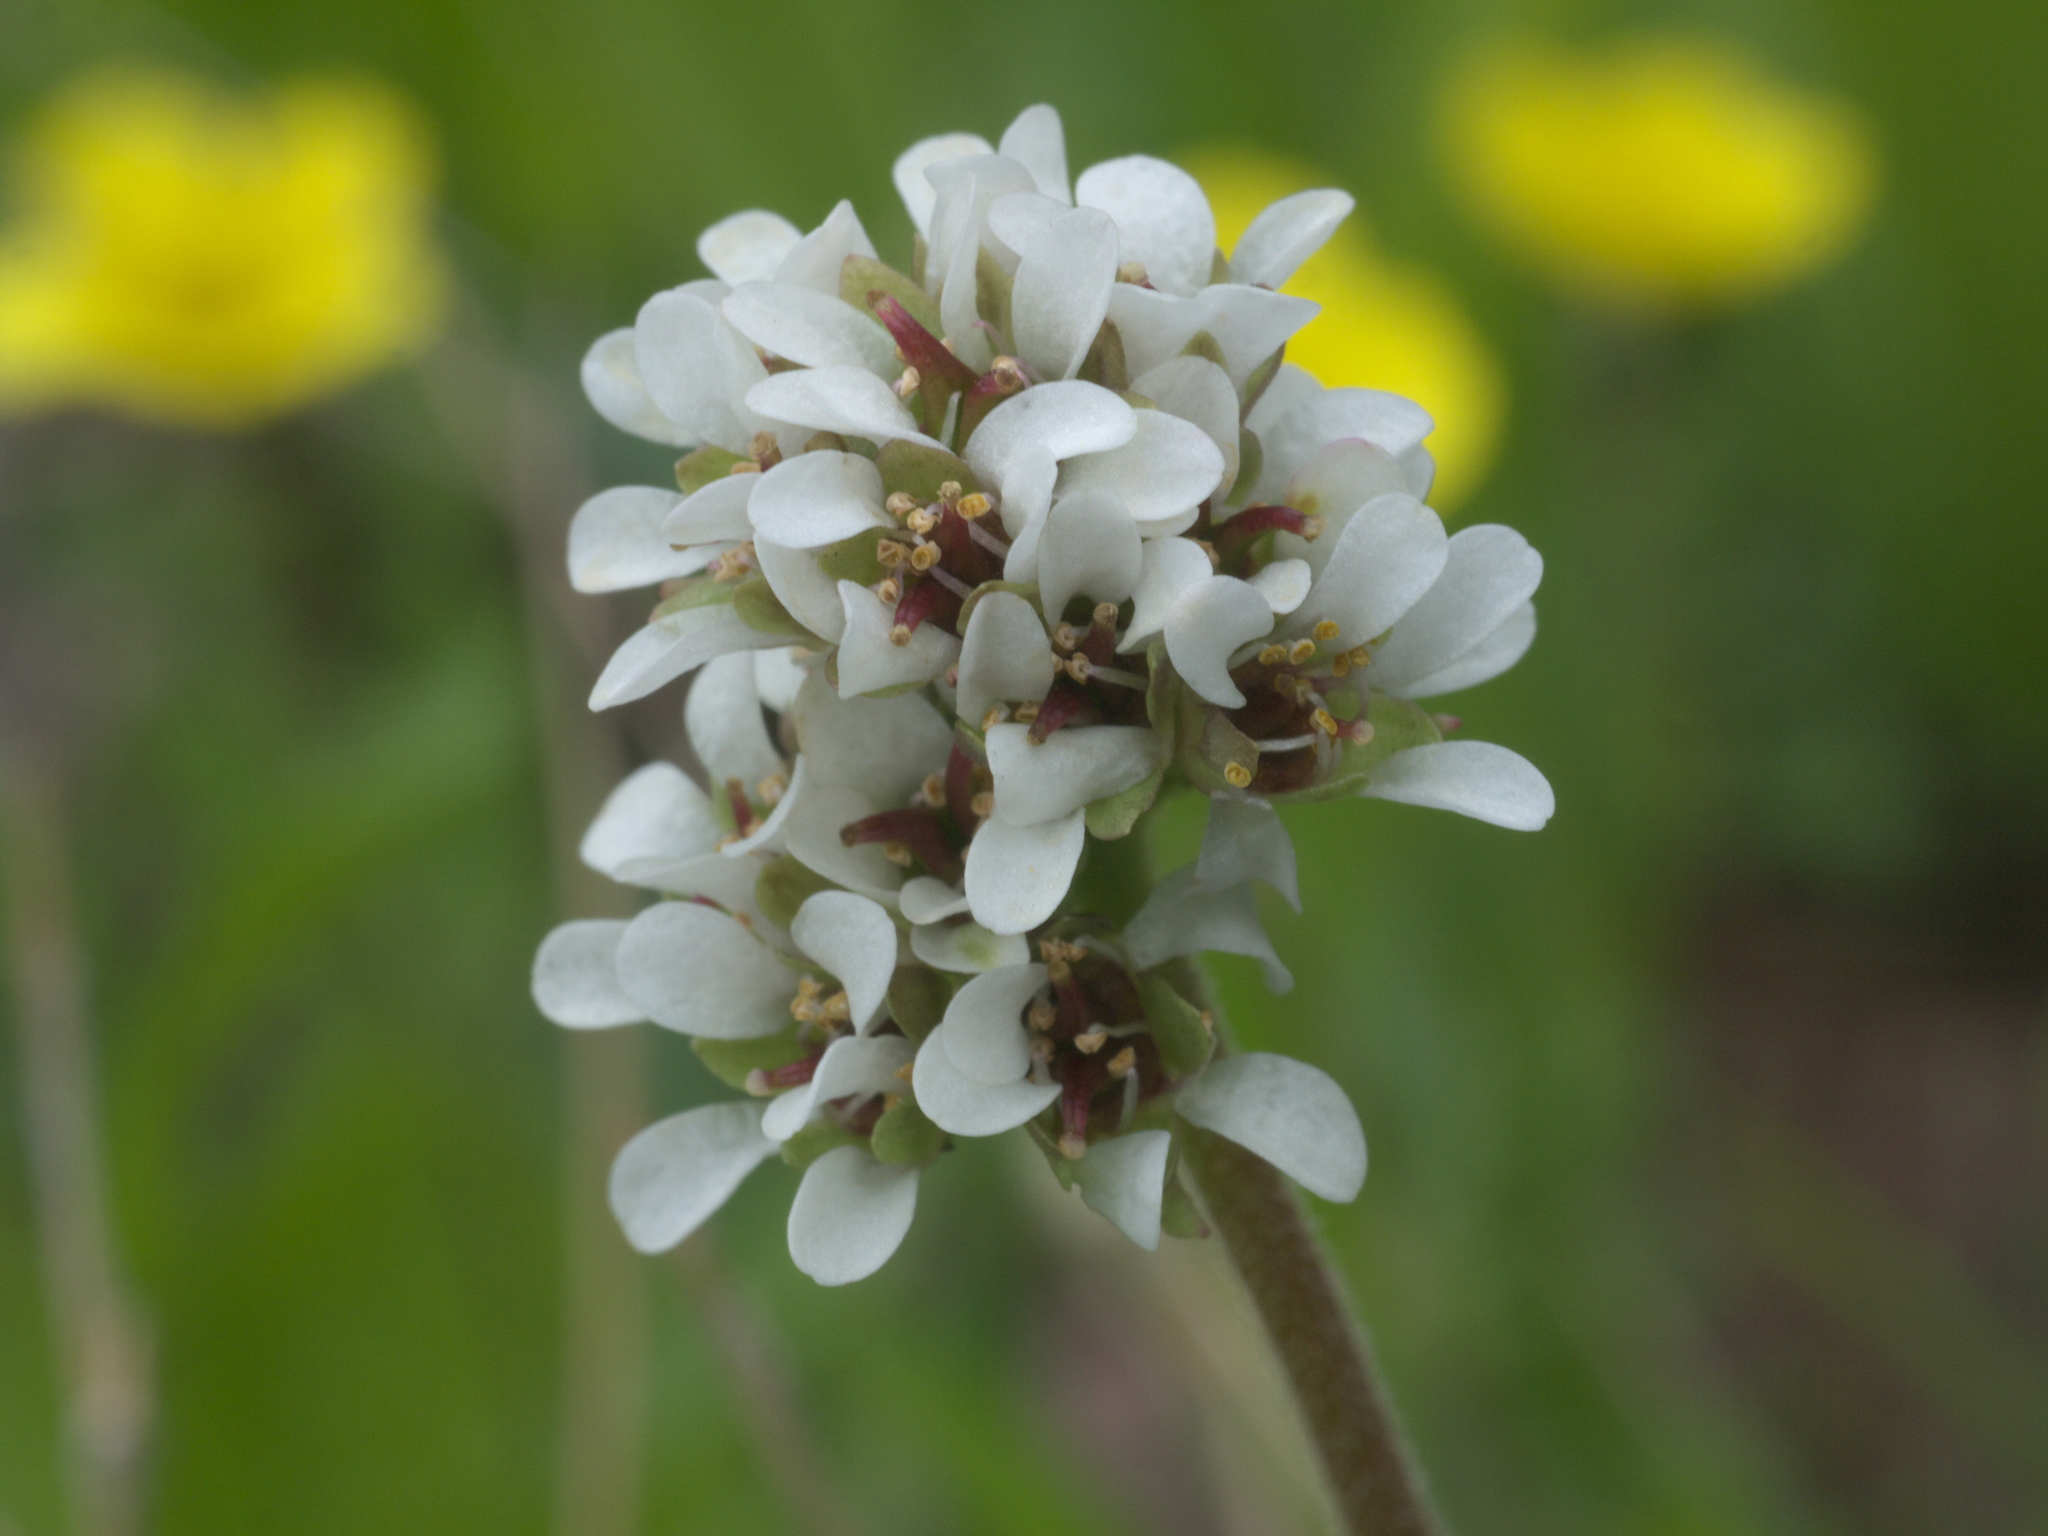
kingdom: Plantae
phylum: Tracheophyta
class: Magnoliopsida
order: Saxifragales
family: Saxifragaceae
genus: Micranthes
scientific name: Micranthes rhomboidea
